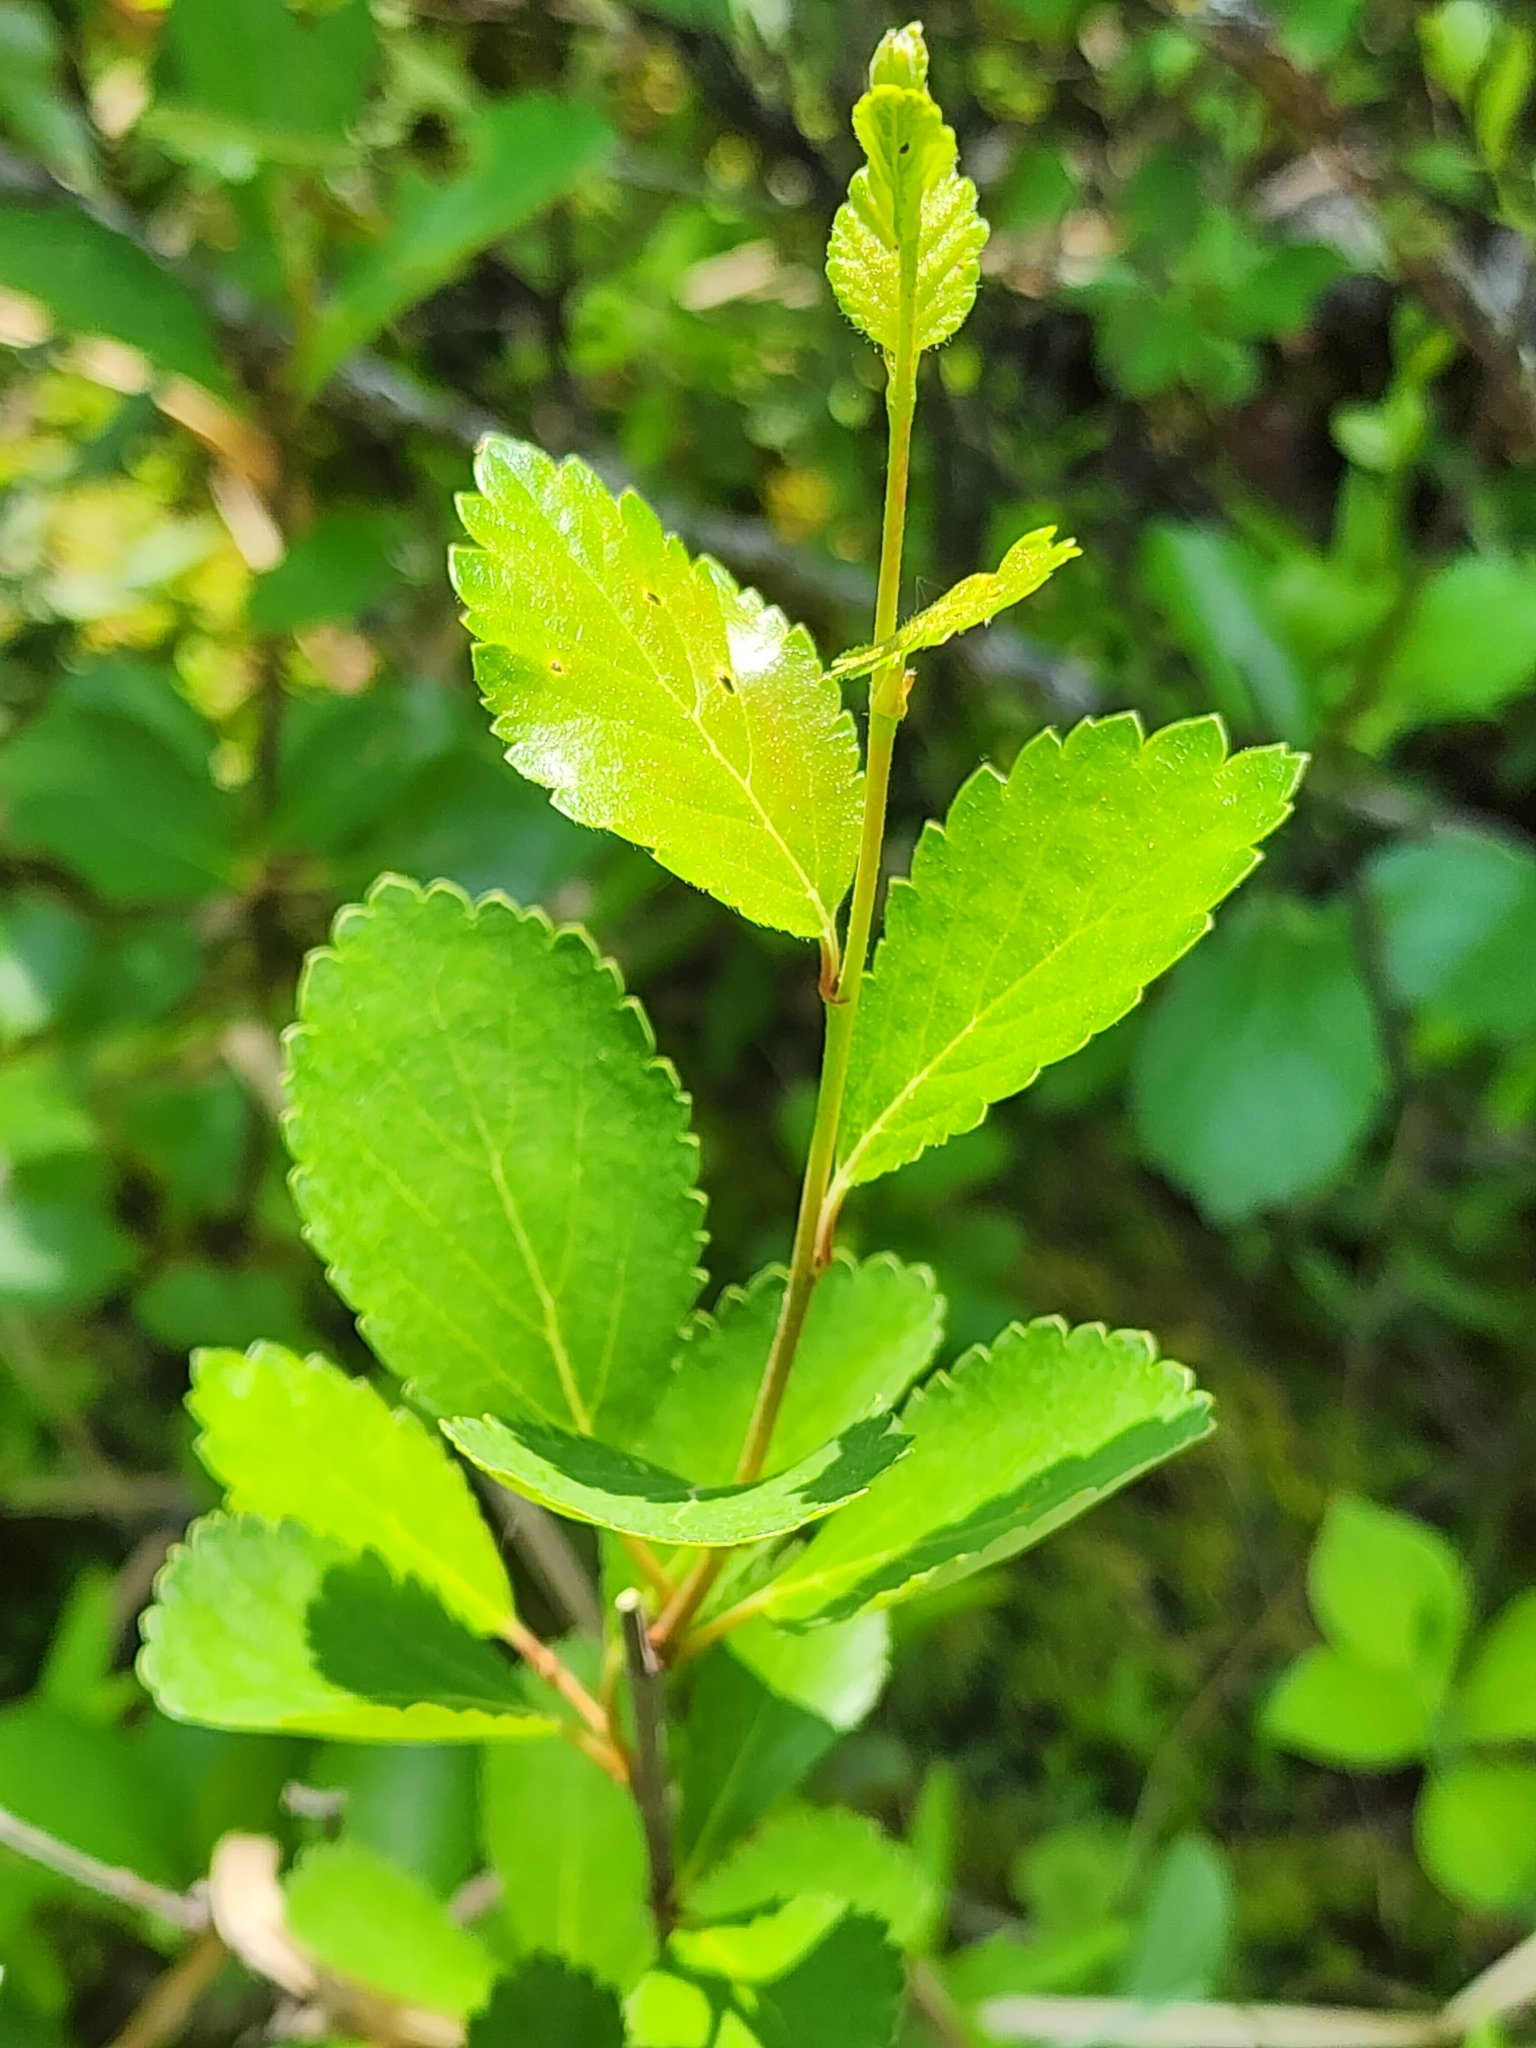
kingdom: Plantae
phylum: Tracheophyta
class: Magnoliopsida
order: Fagales
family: Betulaceae
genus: Betula
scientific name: Betula pumila
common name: Bog birch
